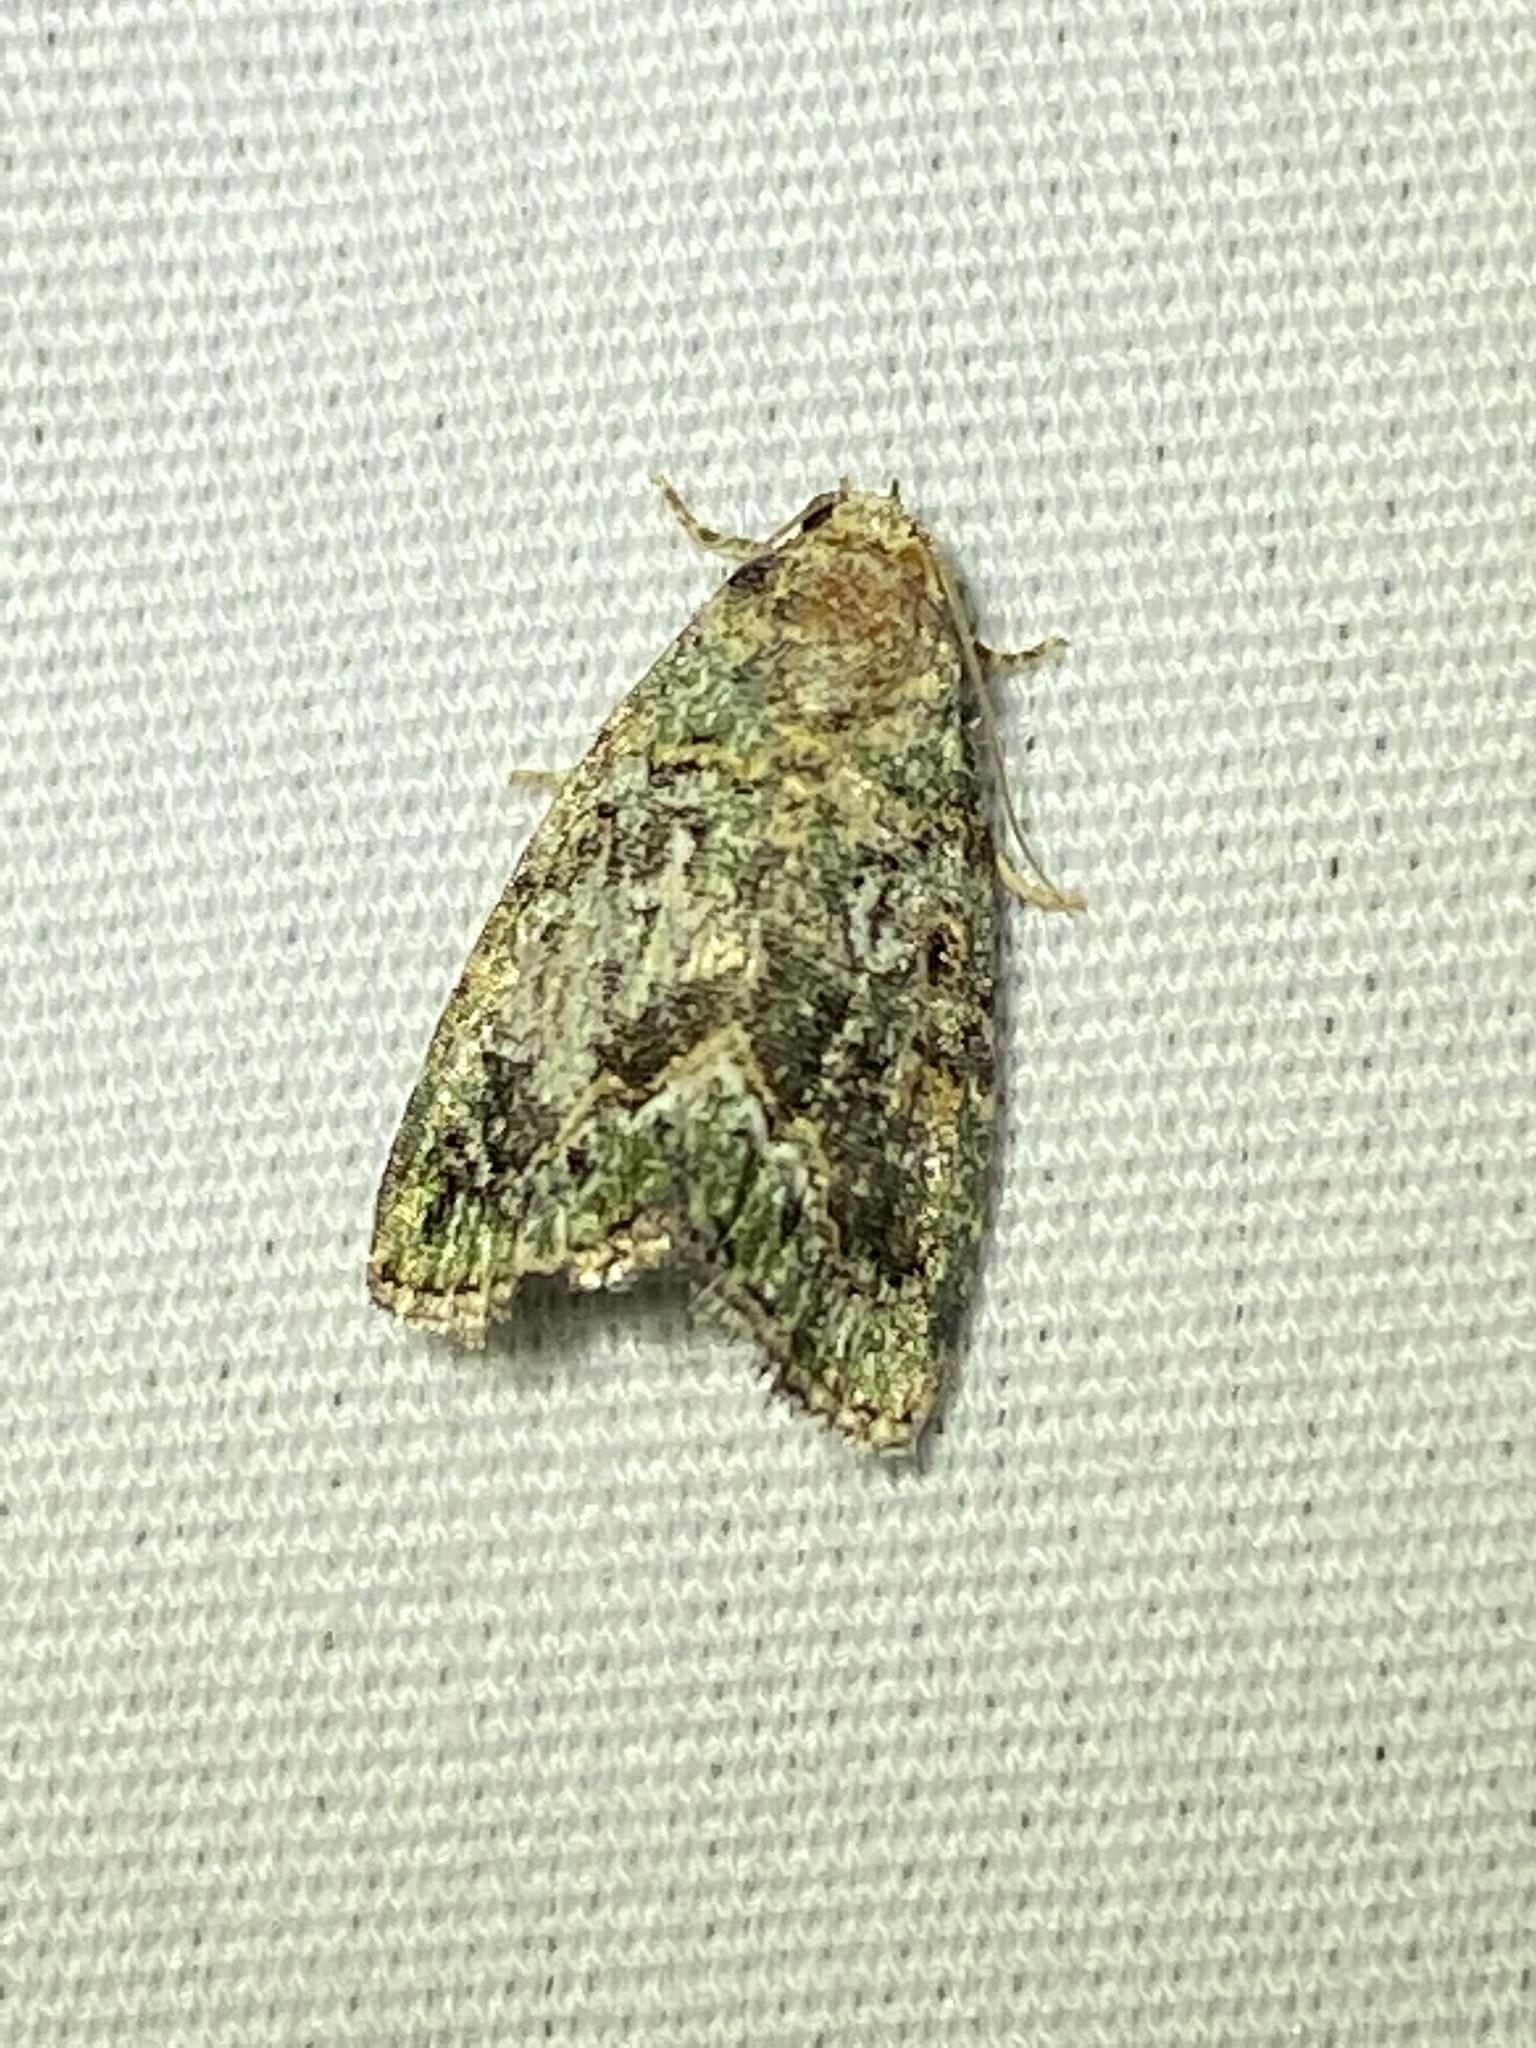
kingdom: Animalia
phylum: Arthropoda
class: Insecta
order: Lepidoptera
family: Noctuidae
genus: Lithacodia
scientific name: Lithacodia musta
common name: Small mossy glyph
